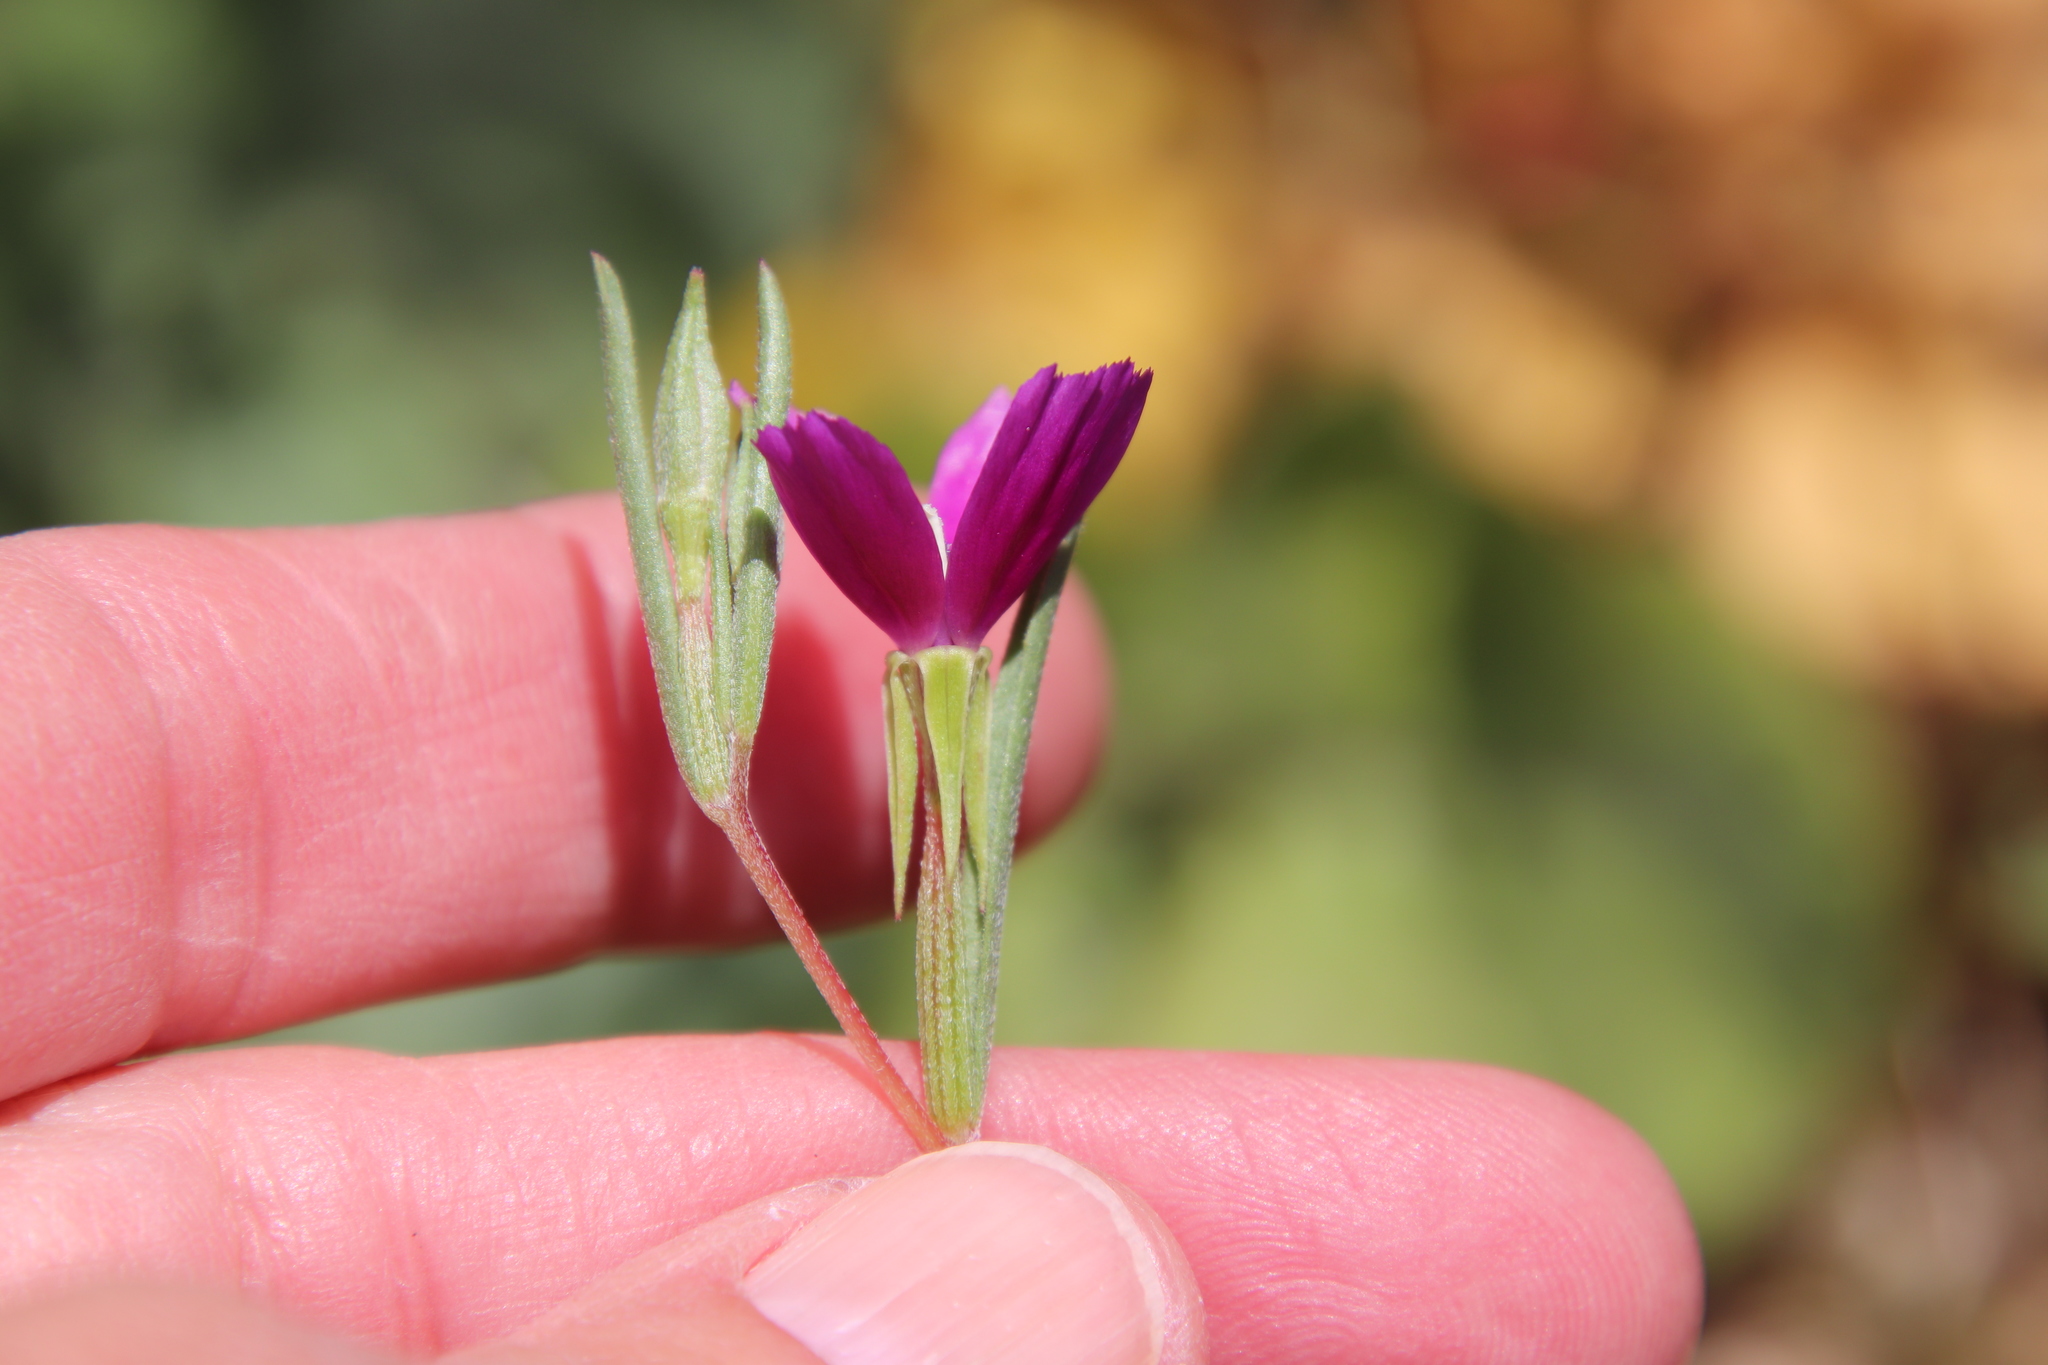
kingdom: Plantae
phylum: Tracheophyta
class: Magnoliopsida
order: Myrtales
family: Onagraceae
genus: Clarkia
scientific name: Clarkia purpurea
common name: Purple clarkia
